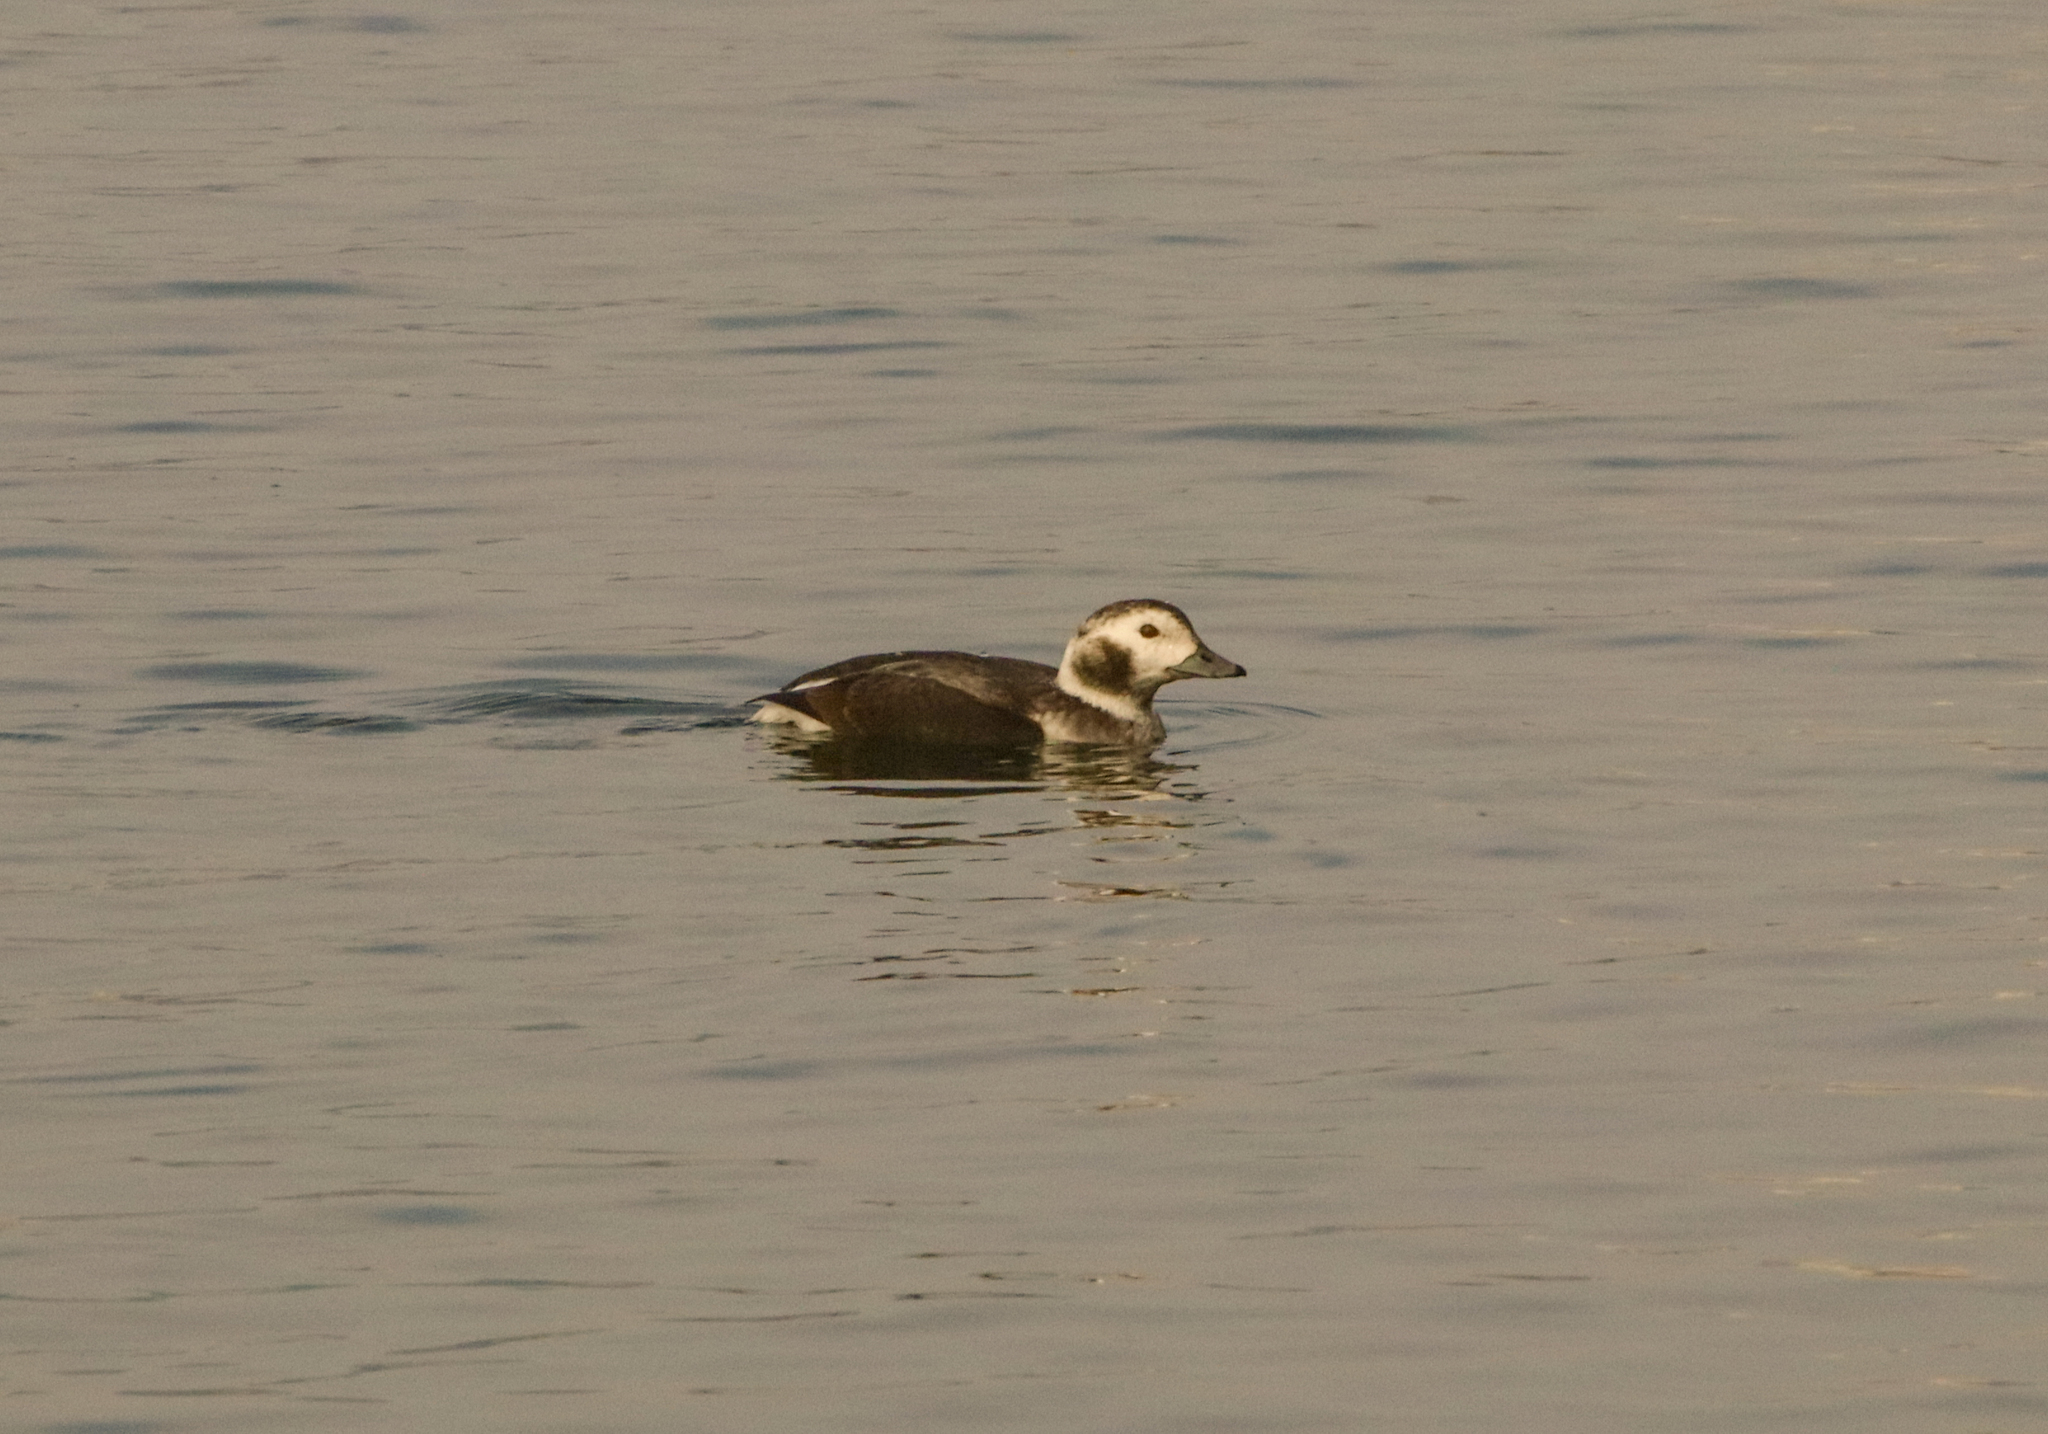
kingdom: Animalia
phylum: Chordata
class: Aves
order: Anseriformes
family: Anatidae
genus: Clangula
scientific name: Clangula hyemalis
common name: Long-tailed duck
